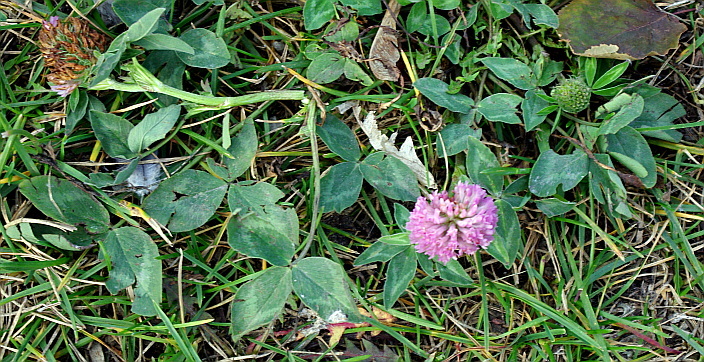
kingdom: Plantae
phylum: Tracheophyta
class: Magnoliopsida
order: Fabales
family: Fabaceae
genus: Trifolium
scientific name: Trifolium pratense
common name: Red clover
